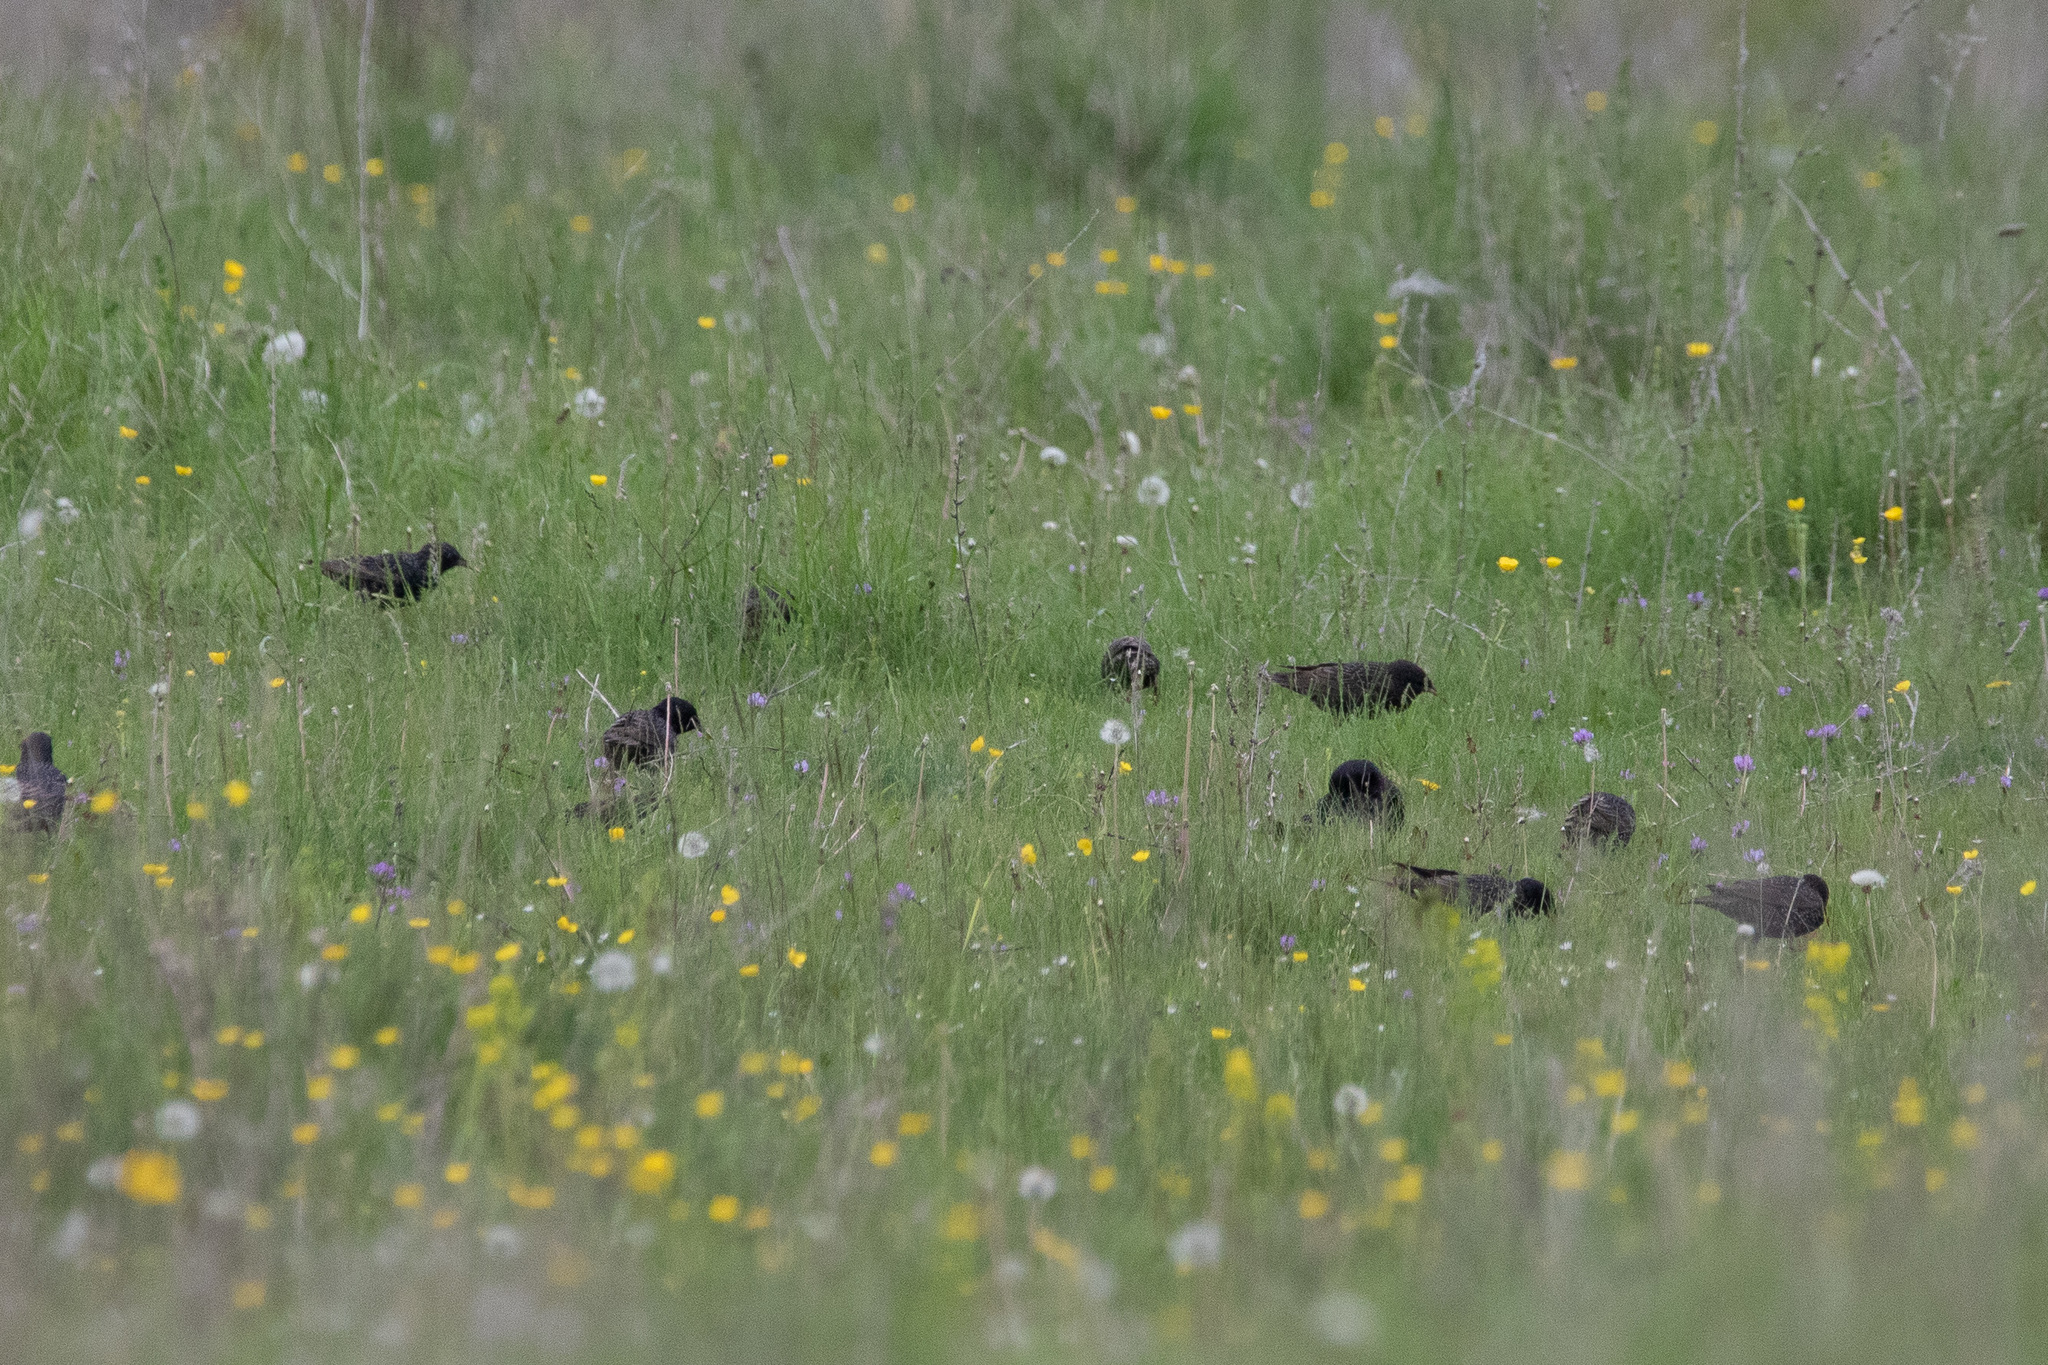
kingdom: Animalia
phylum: Chordata
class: Aves
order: Passeriformes
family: Sturnidae
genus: Sturnus
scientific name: Sturnus vulgaris
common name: Common starling
